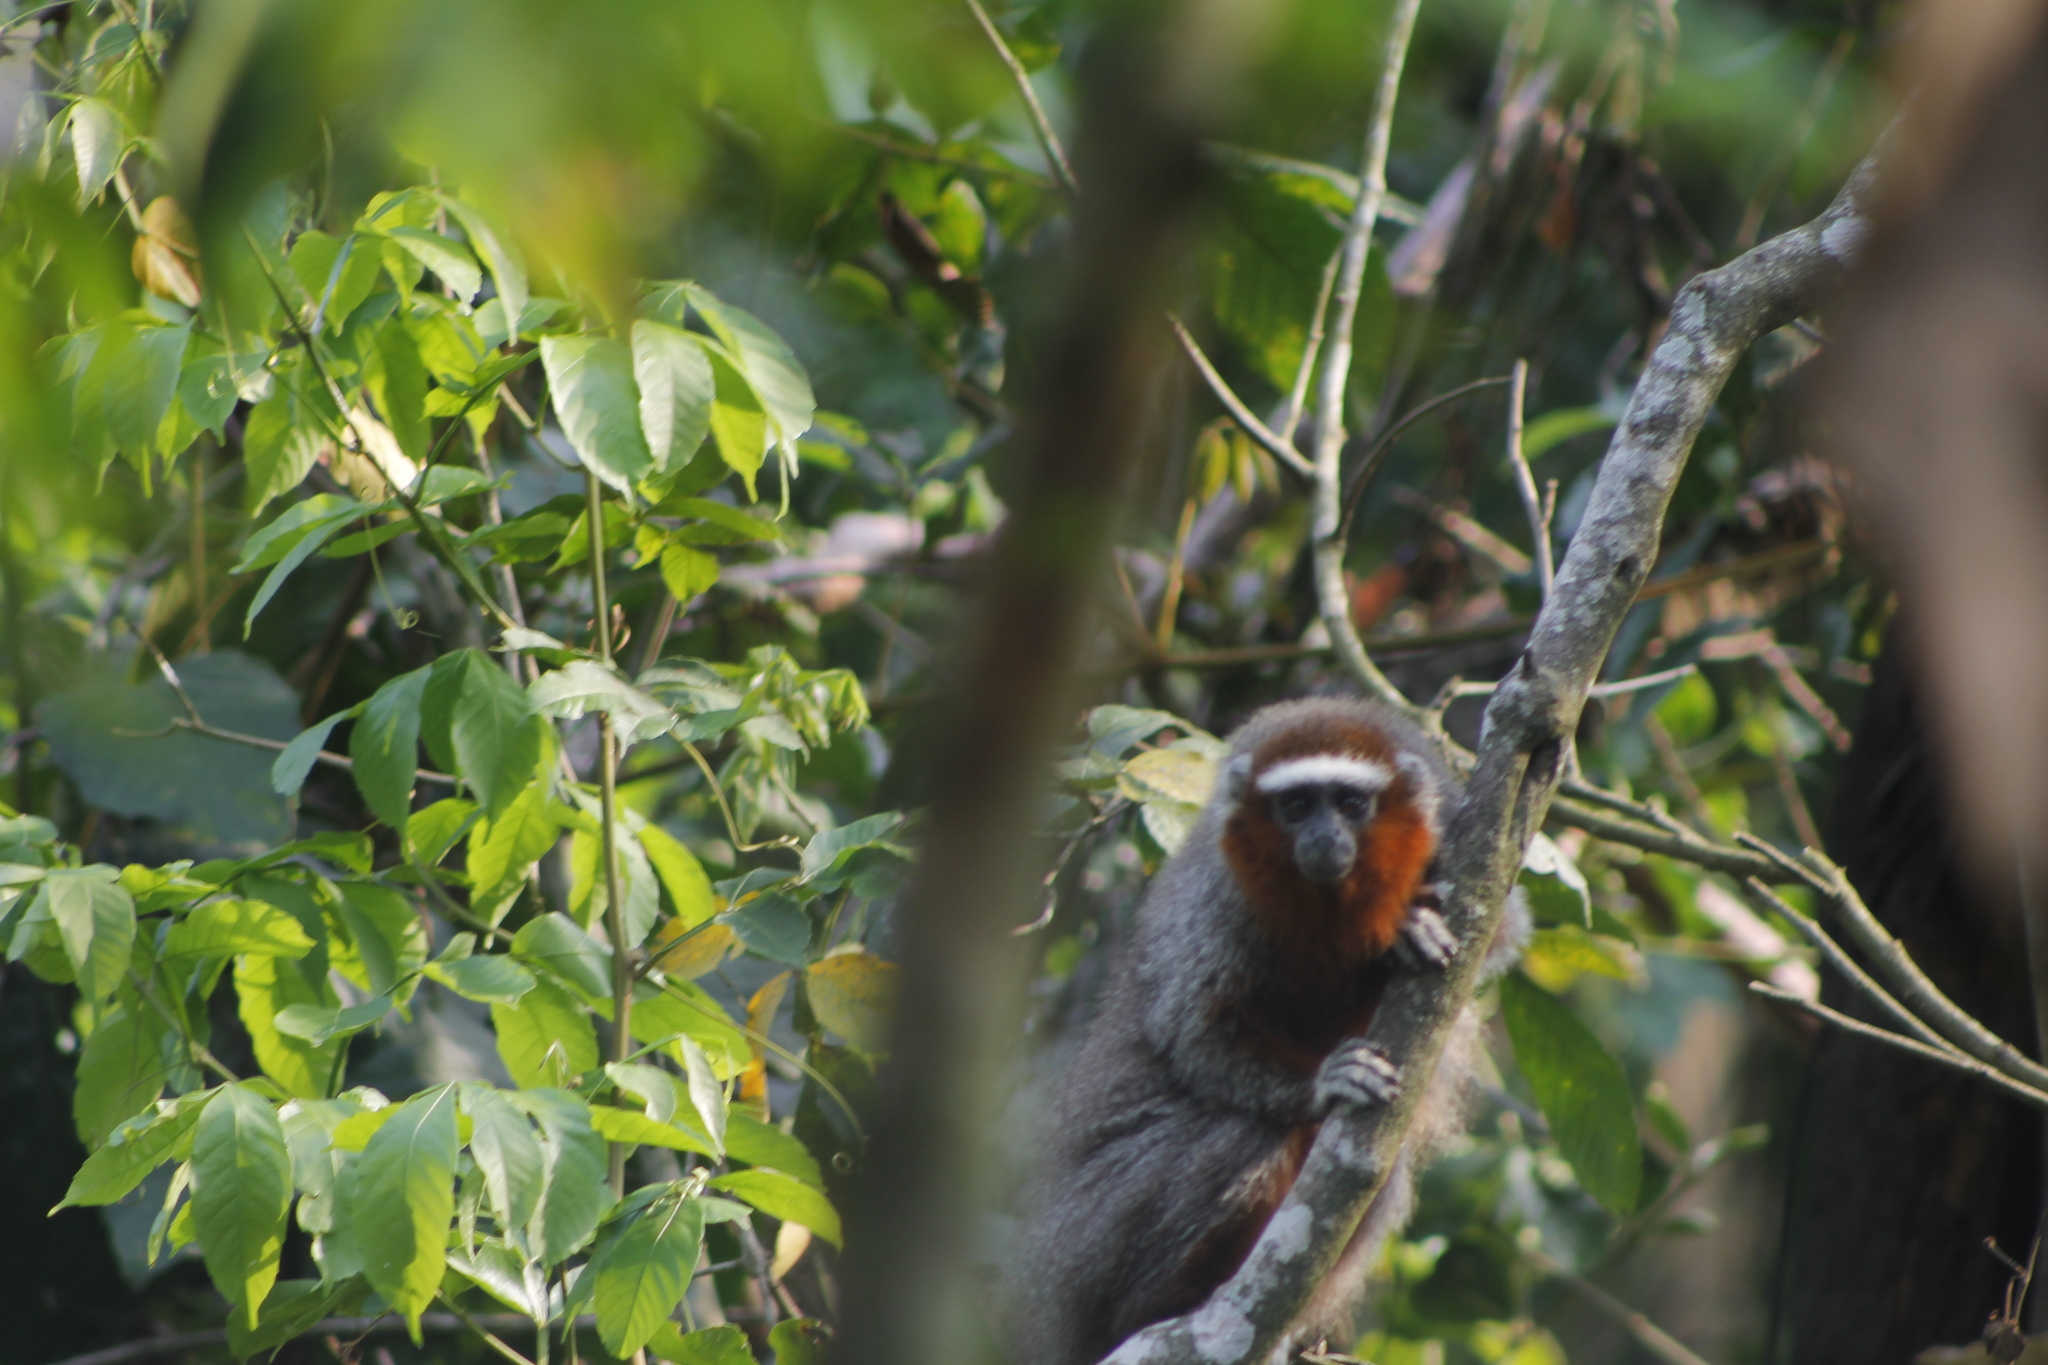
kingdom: Animalia
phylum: Chordata
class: Mammalia
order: Primates
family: Pitheciidae
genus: Plecturocebus
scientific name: Plecturocebus ornatus
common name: Ornate titi
